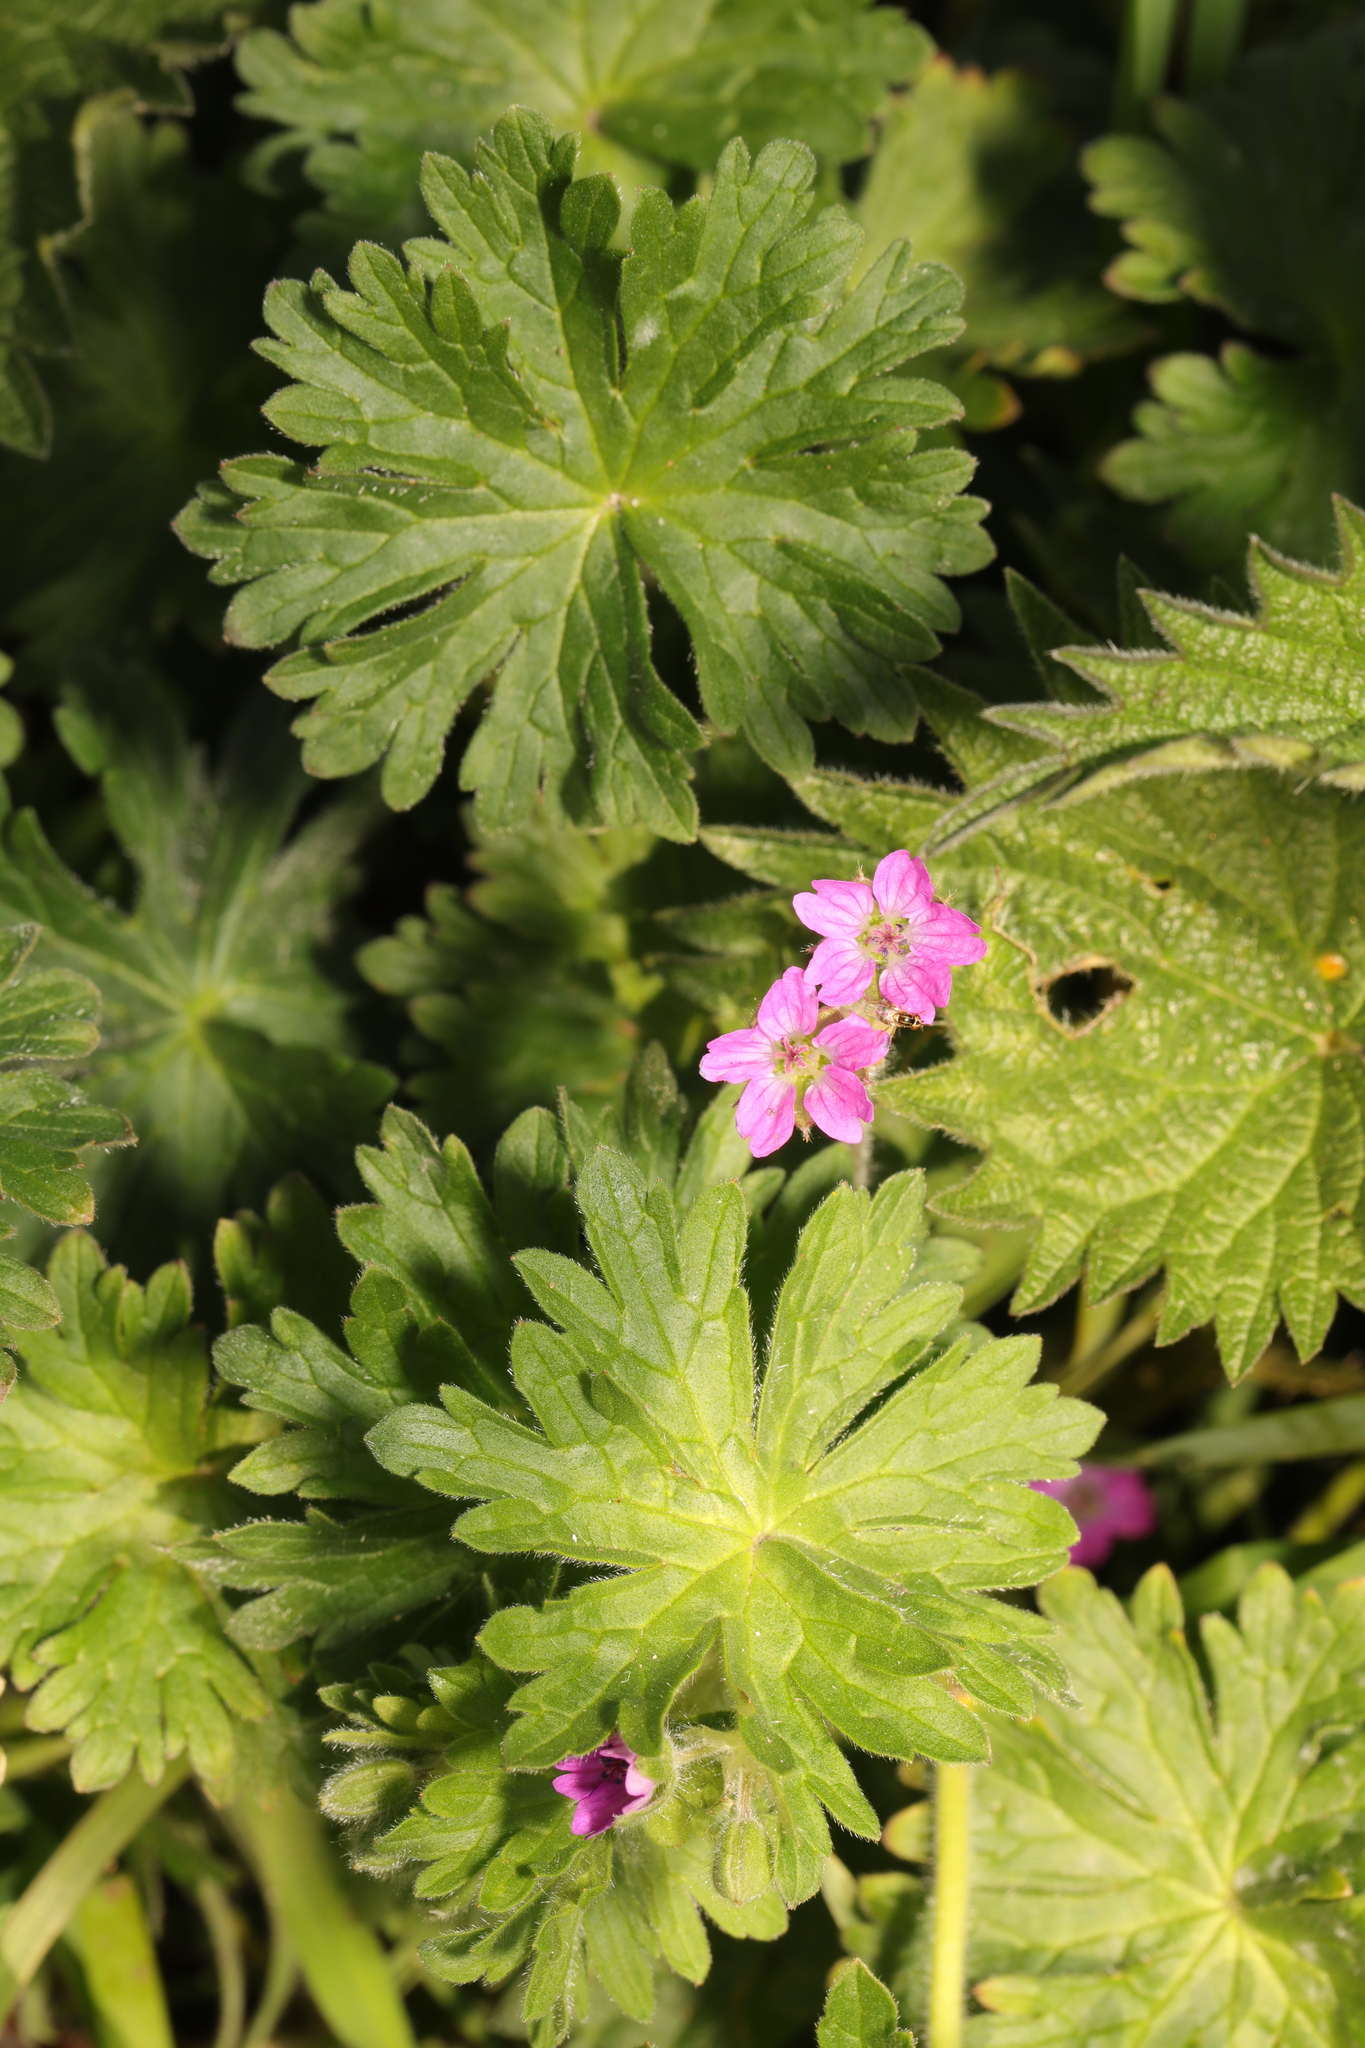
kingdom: Plantae
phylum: Tracheophyta
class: Magnoliopsida
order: Geraniales
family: Geraniaceae
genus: Geranium
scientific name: Geranium molle
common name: Dove's-foot crane's-bill
